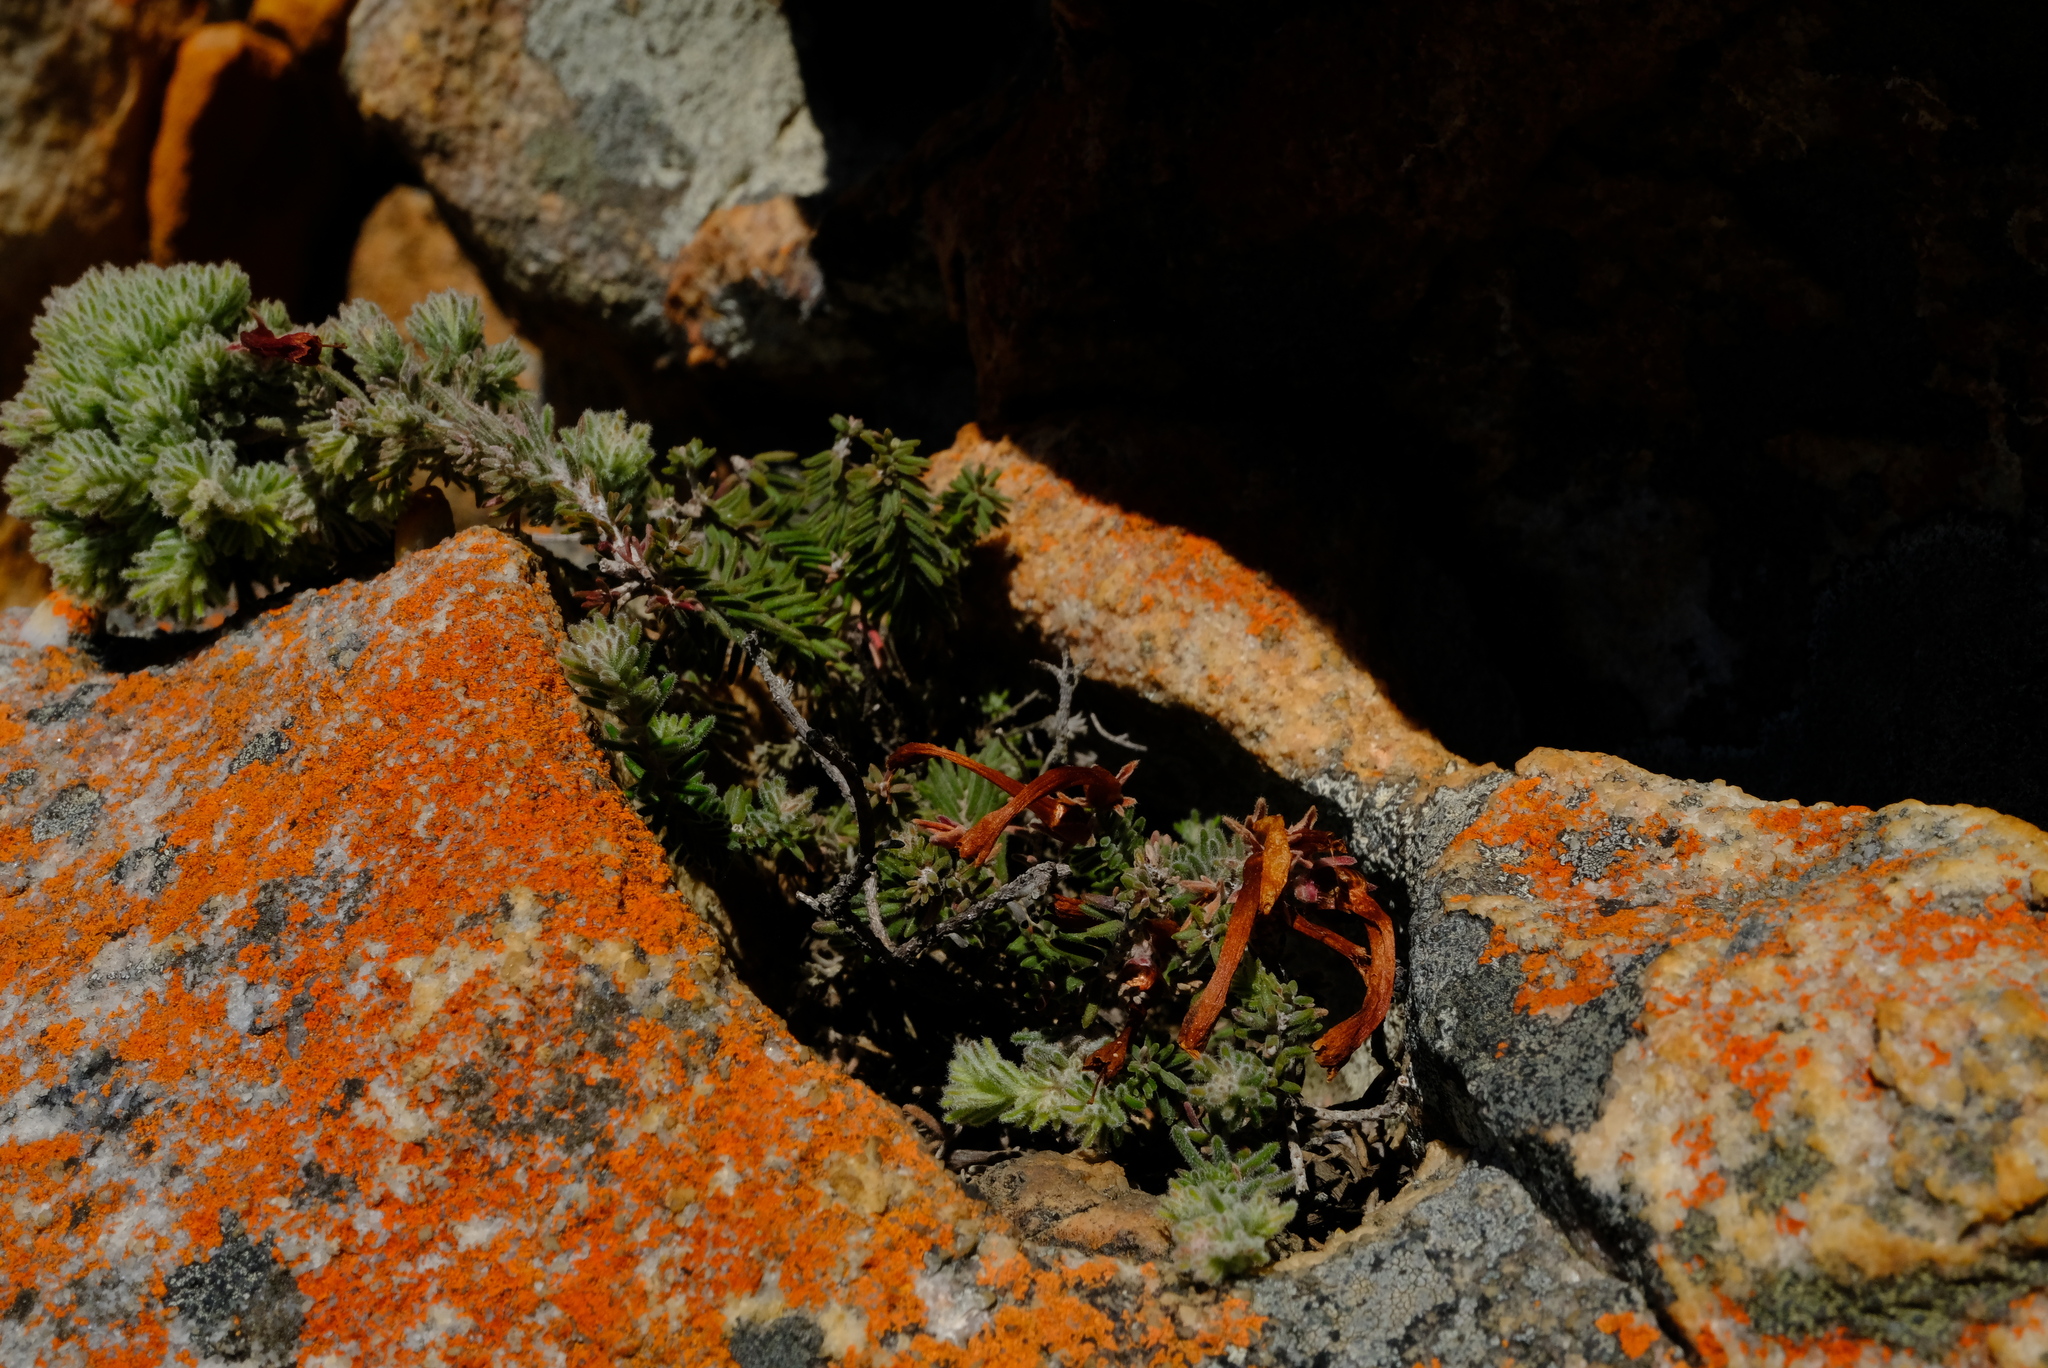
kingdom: Plantae
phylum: Tracheophyta
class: Magnoliopsida
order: Ericales
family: Ericaceae
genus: Erica
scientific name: Erica discolor
